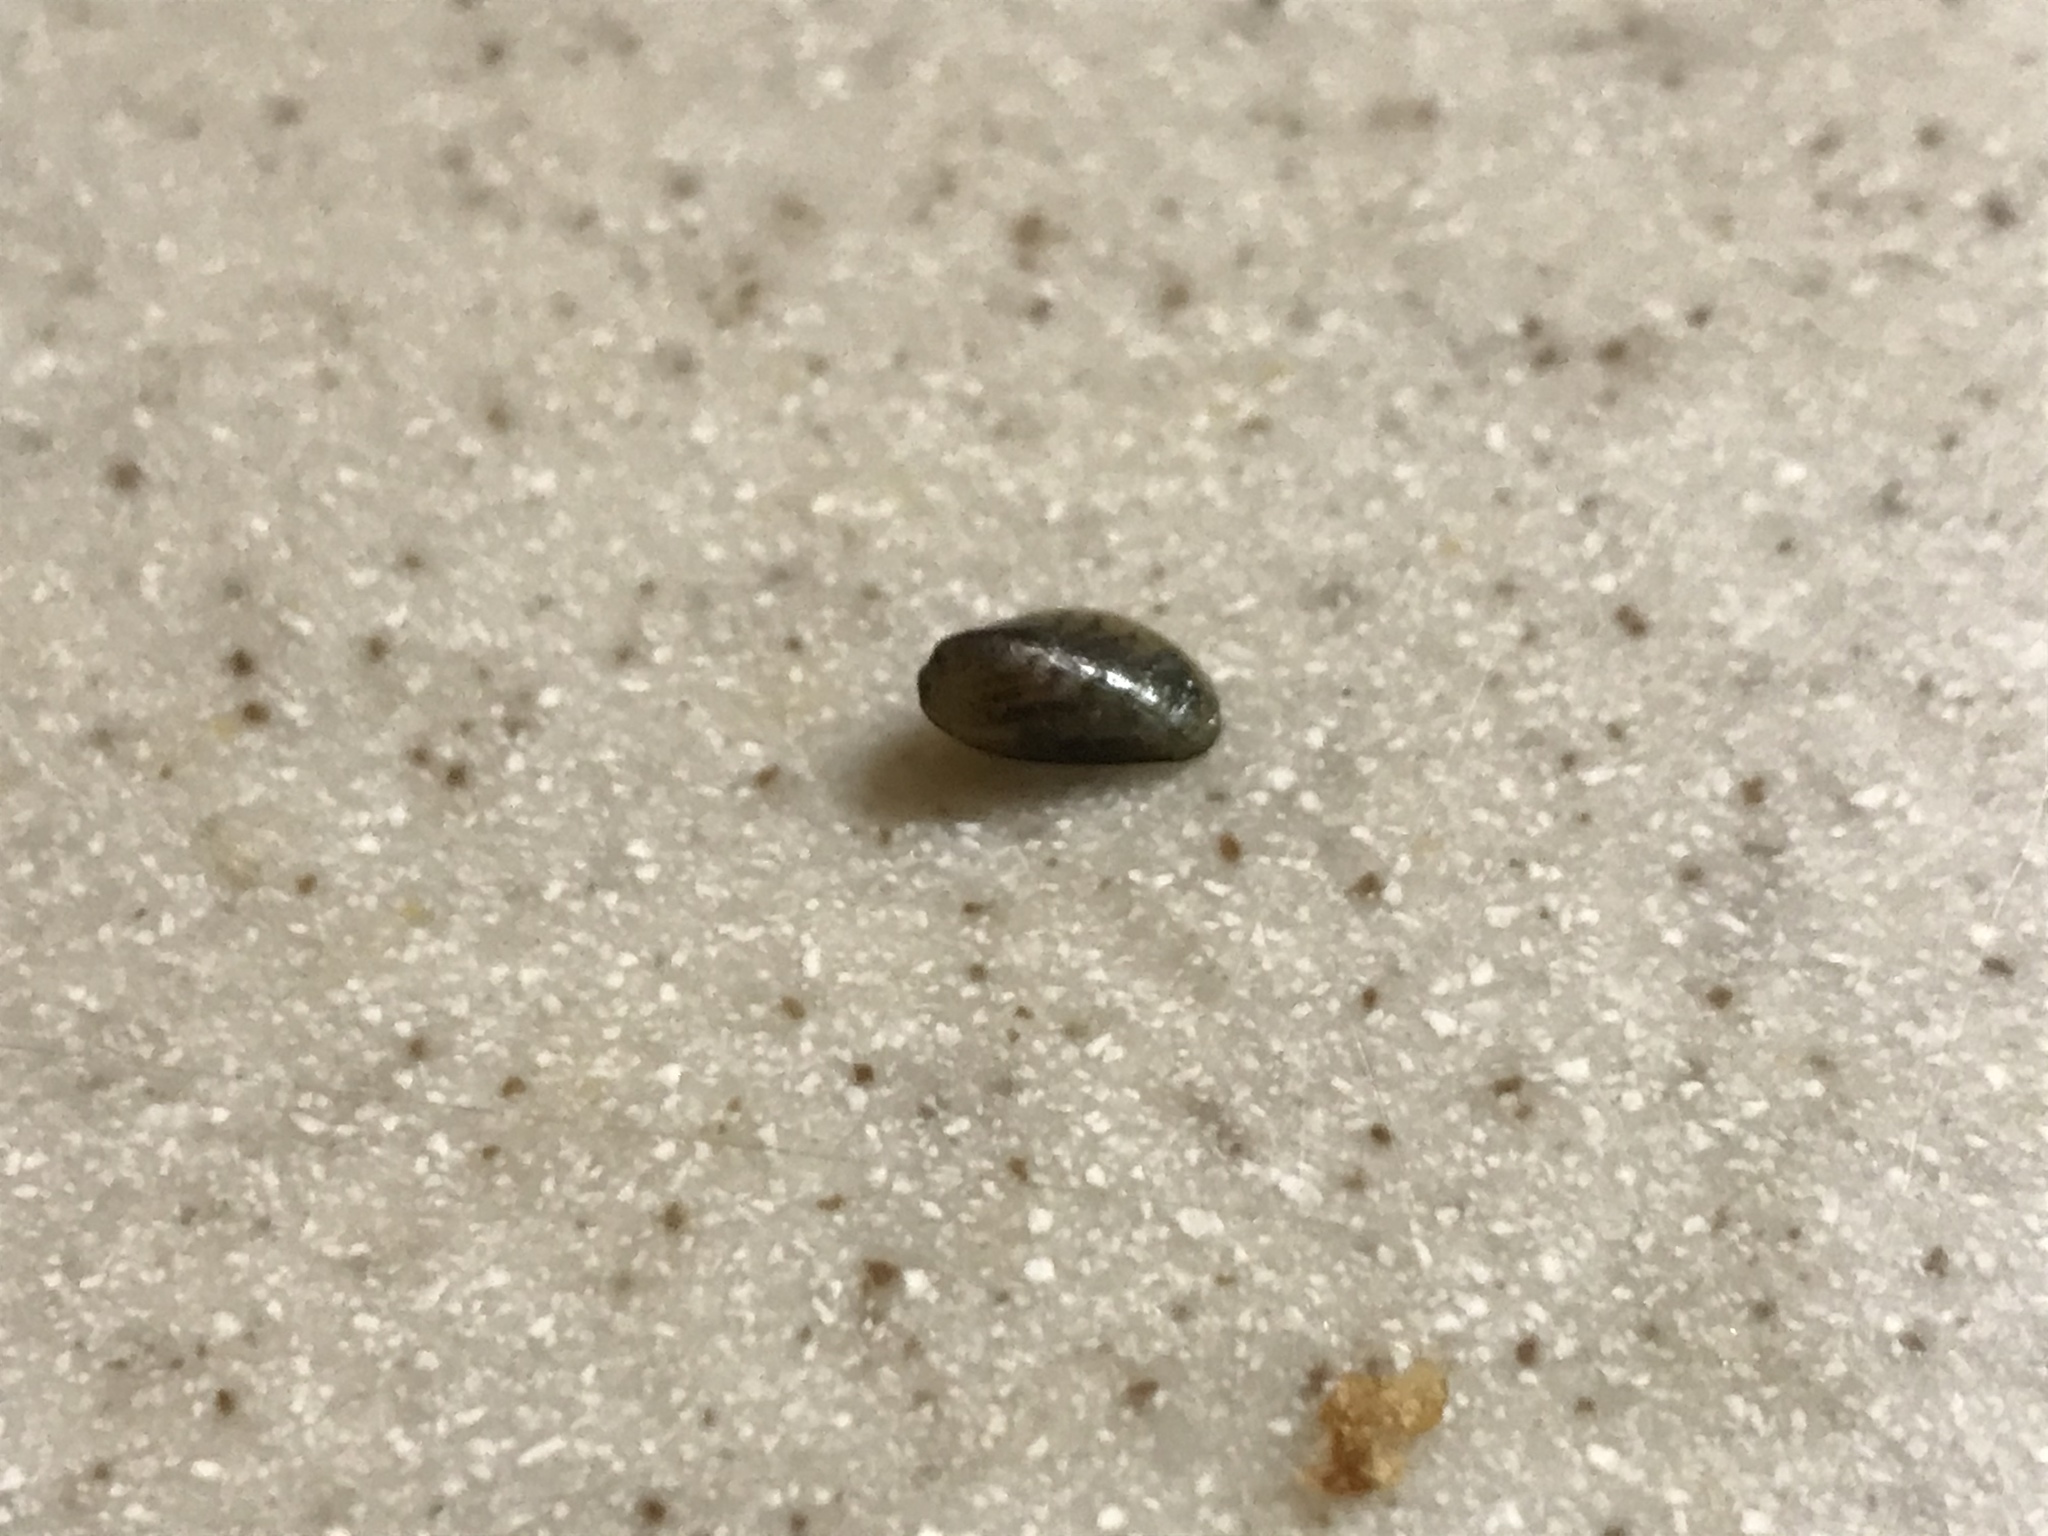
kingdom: Animalia
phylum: Mollusca
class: Bivalvia
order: Mytilida
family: Mytilidae
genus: Arcuatula
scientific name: Arcuatula senhousia
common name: Asian mussel
